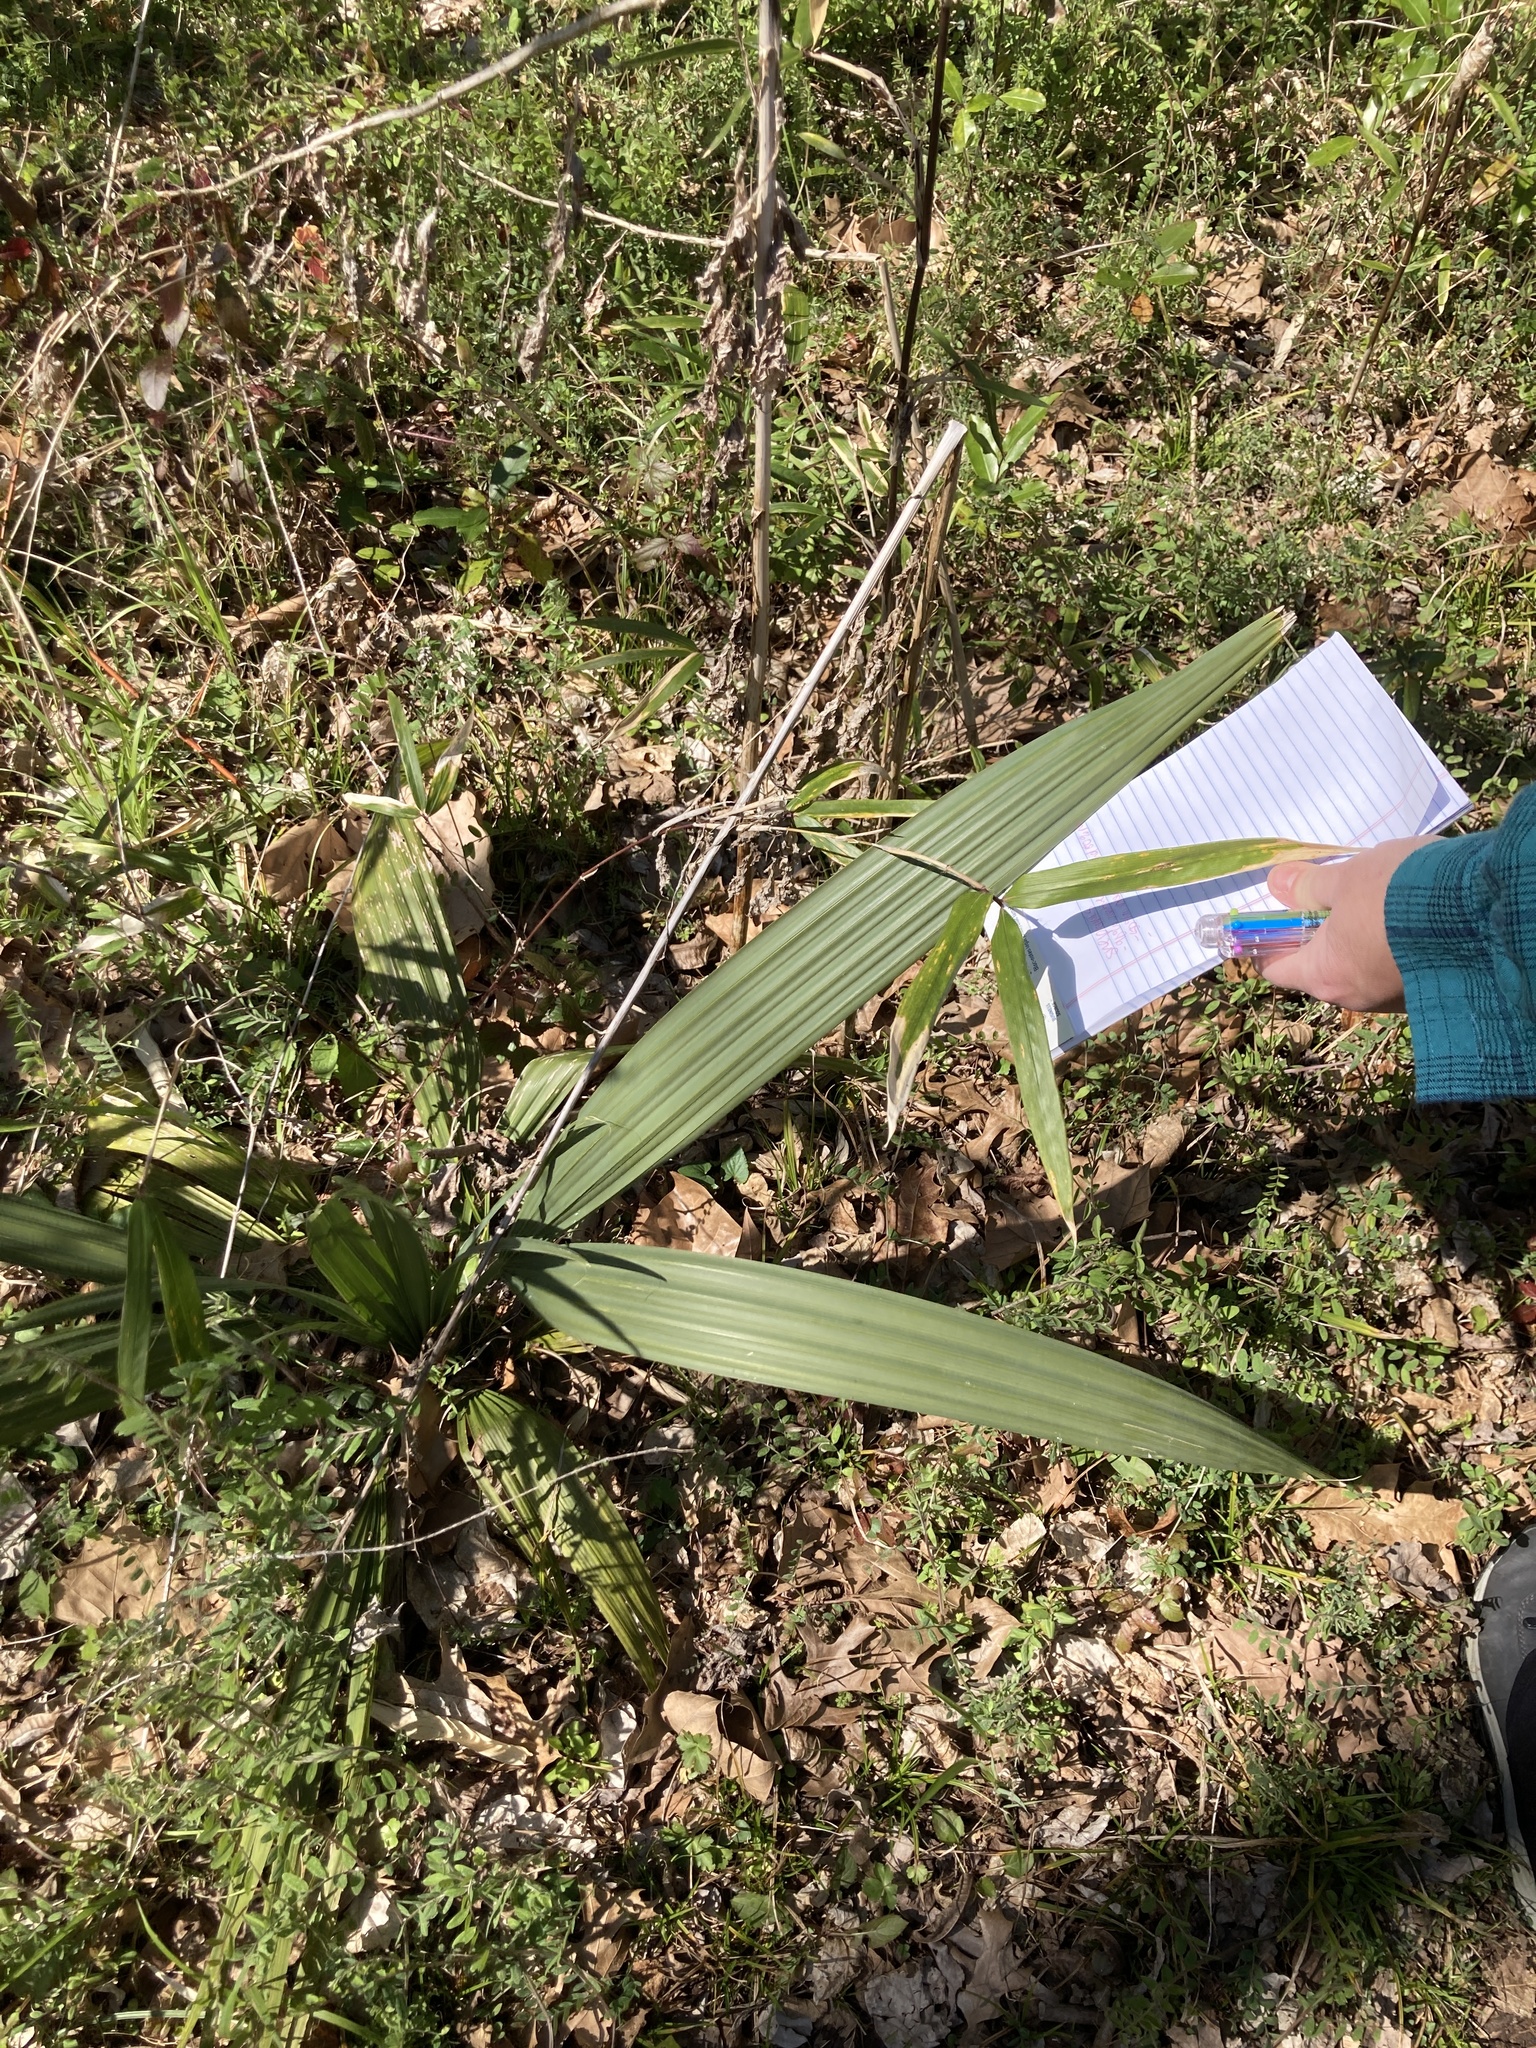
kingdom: Plantae
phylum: Tracheophyta
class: Liliopsida
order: Arecales
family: Arecaceae
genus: Sabal
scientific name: Sabal minor
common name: Dwarf palmetto
